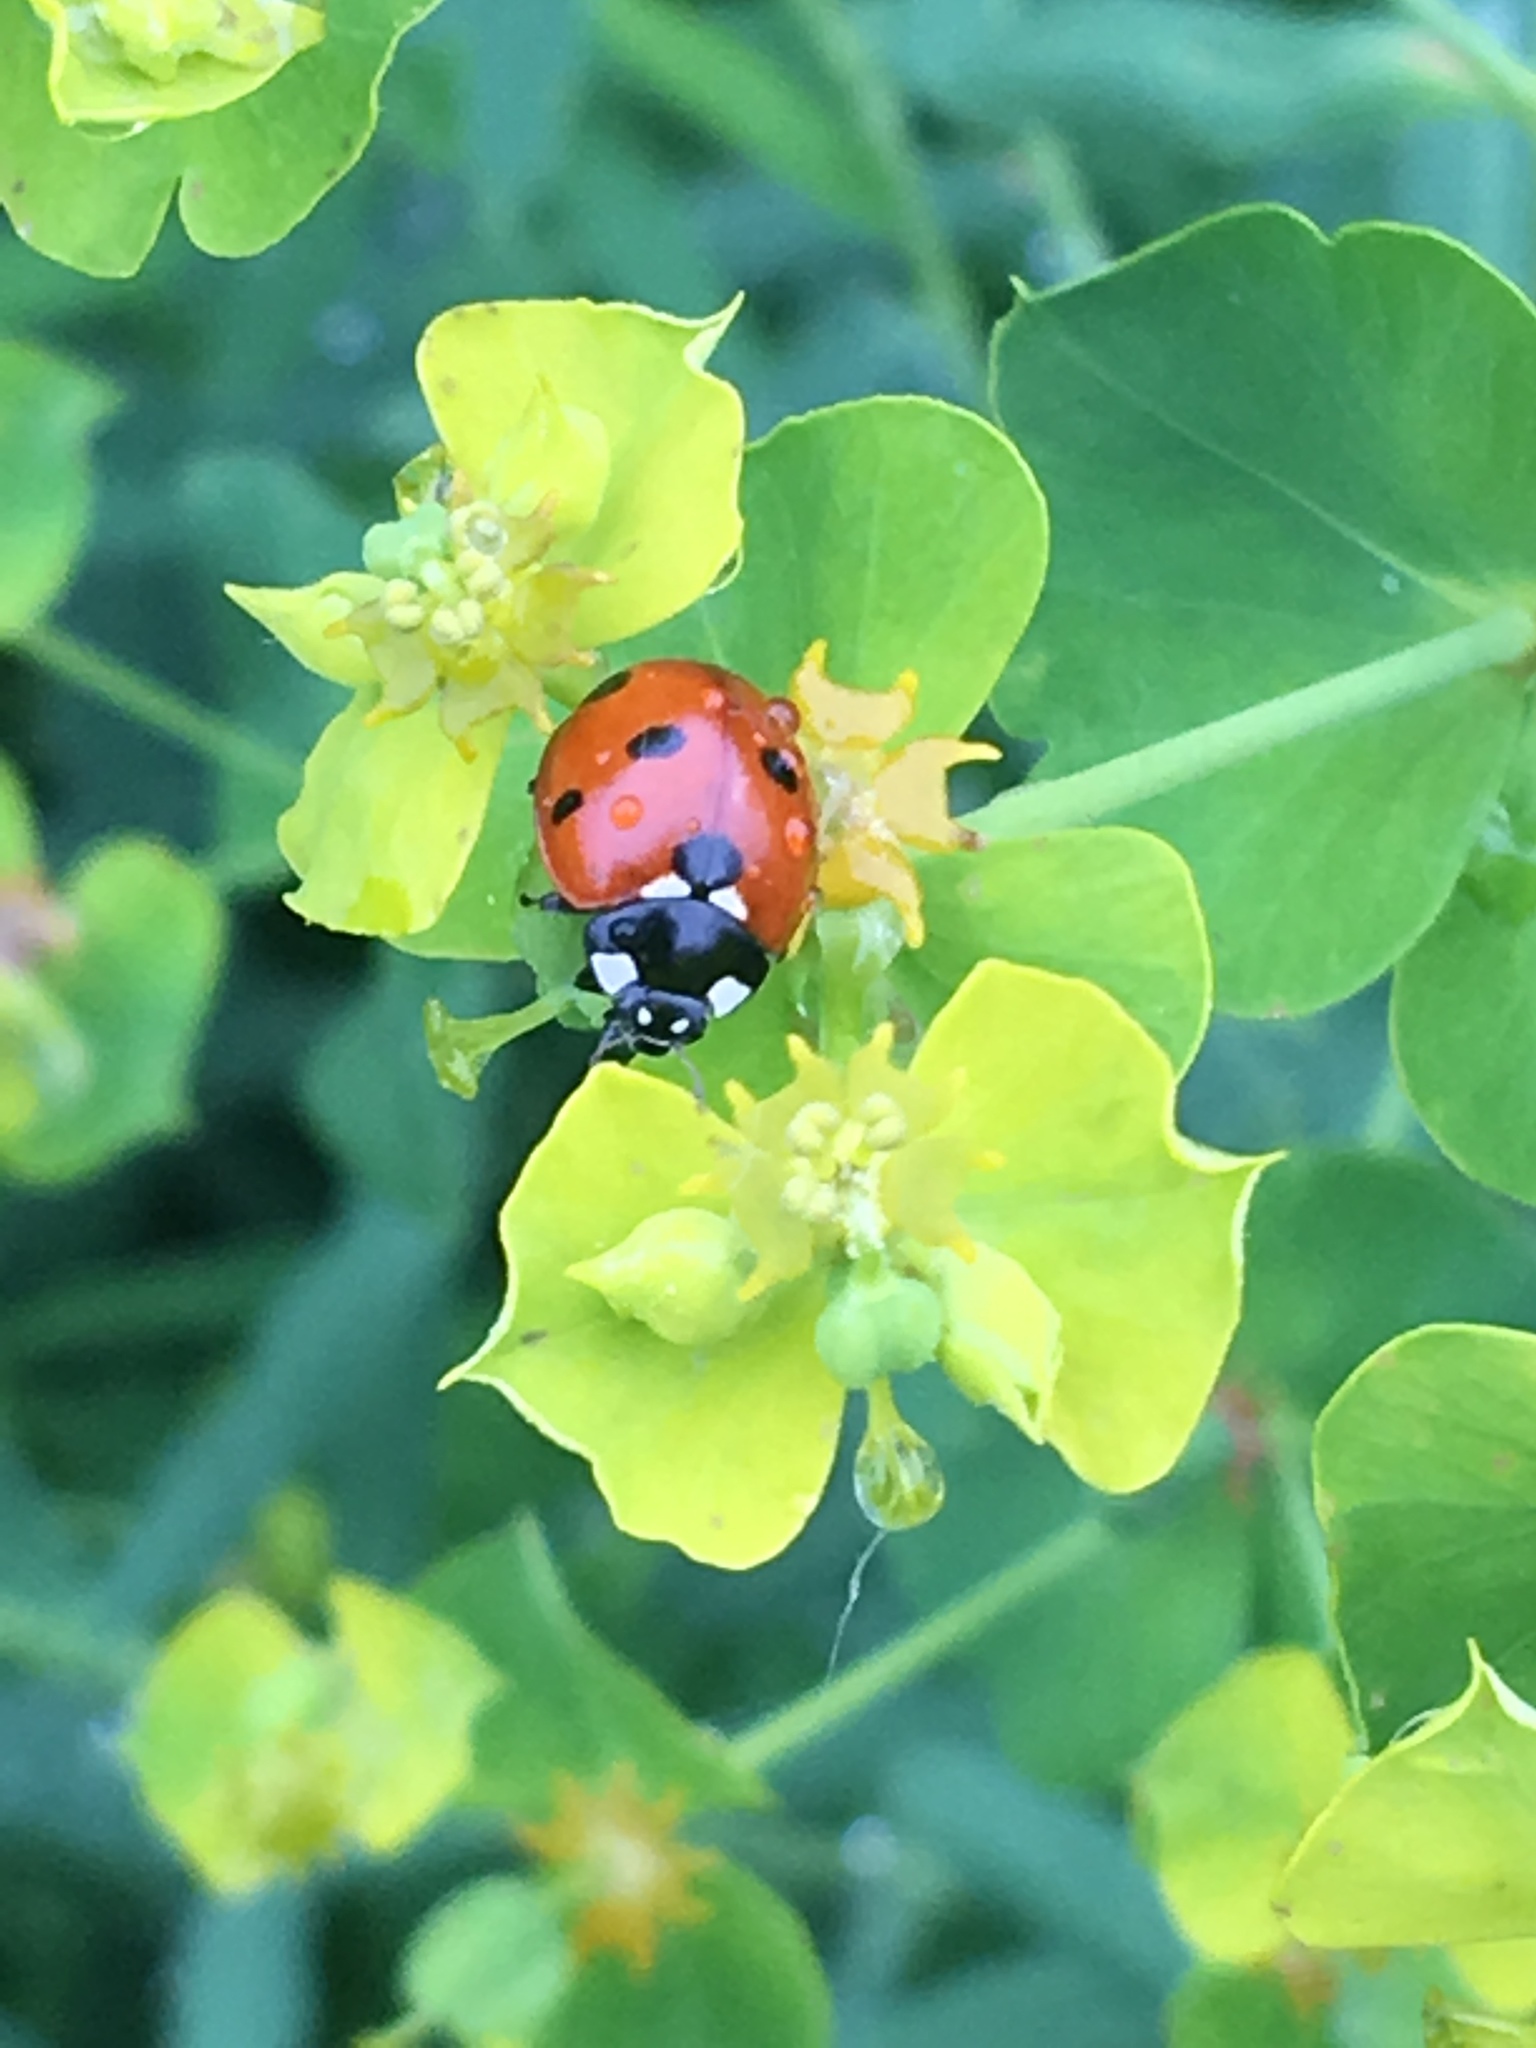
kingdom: Animalia
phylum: Arthropoda
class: Insecta
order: Coleoptera
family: Coccinellidae
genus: Coccinella
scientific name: Coccinella septempunctata
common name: Sevenspotted lady beetle
